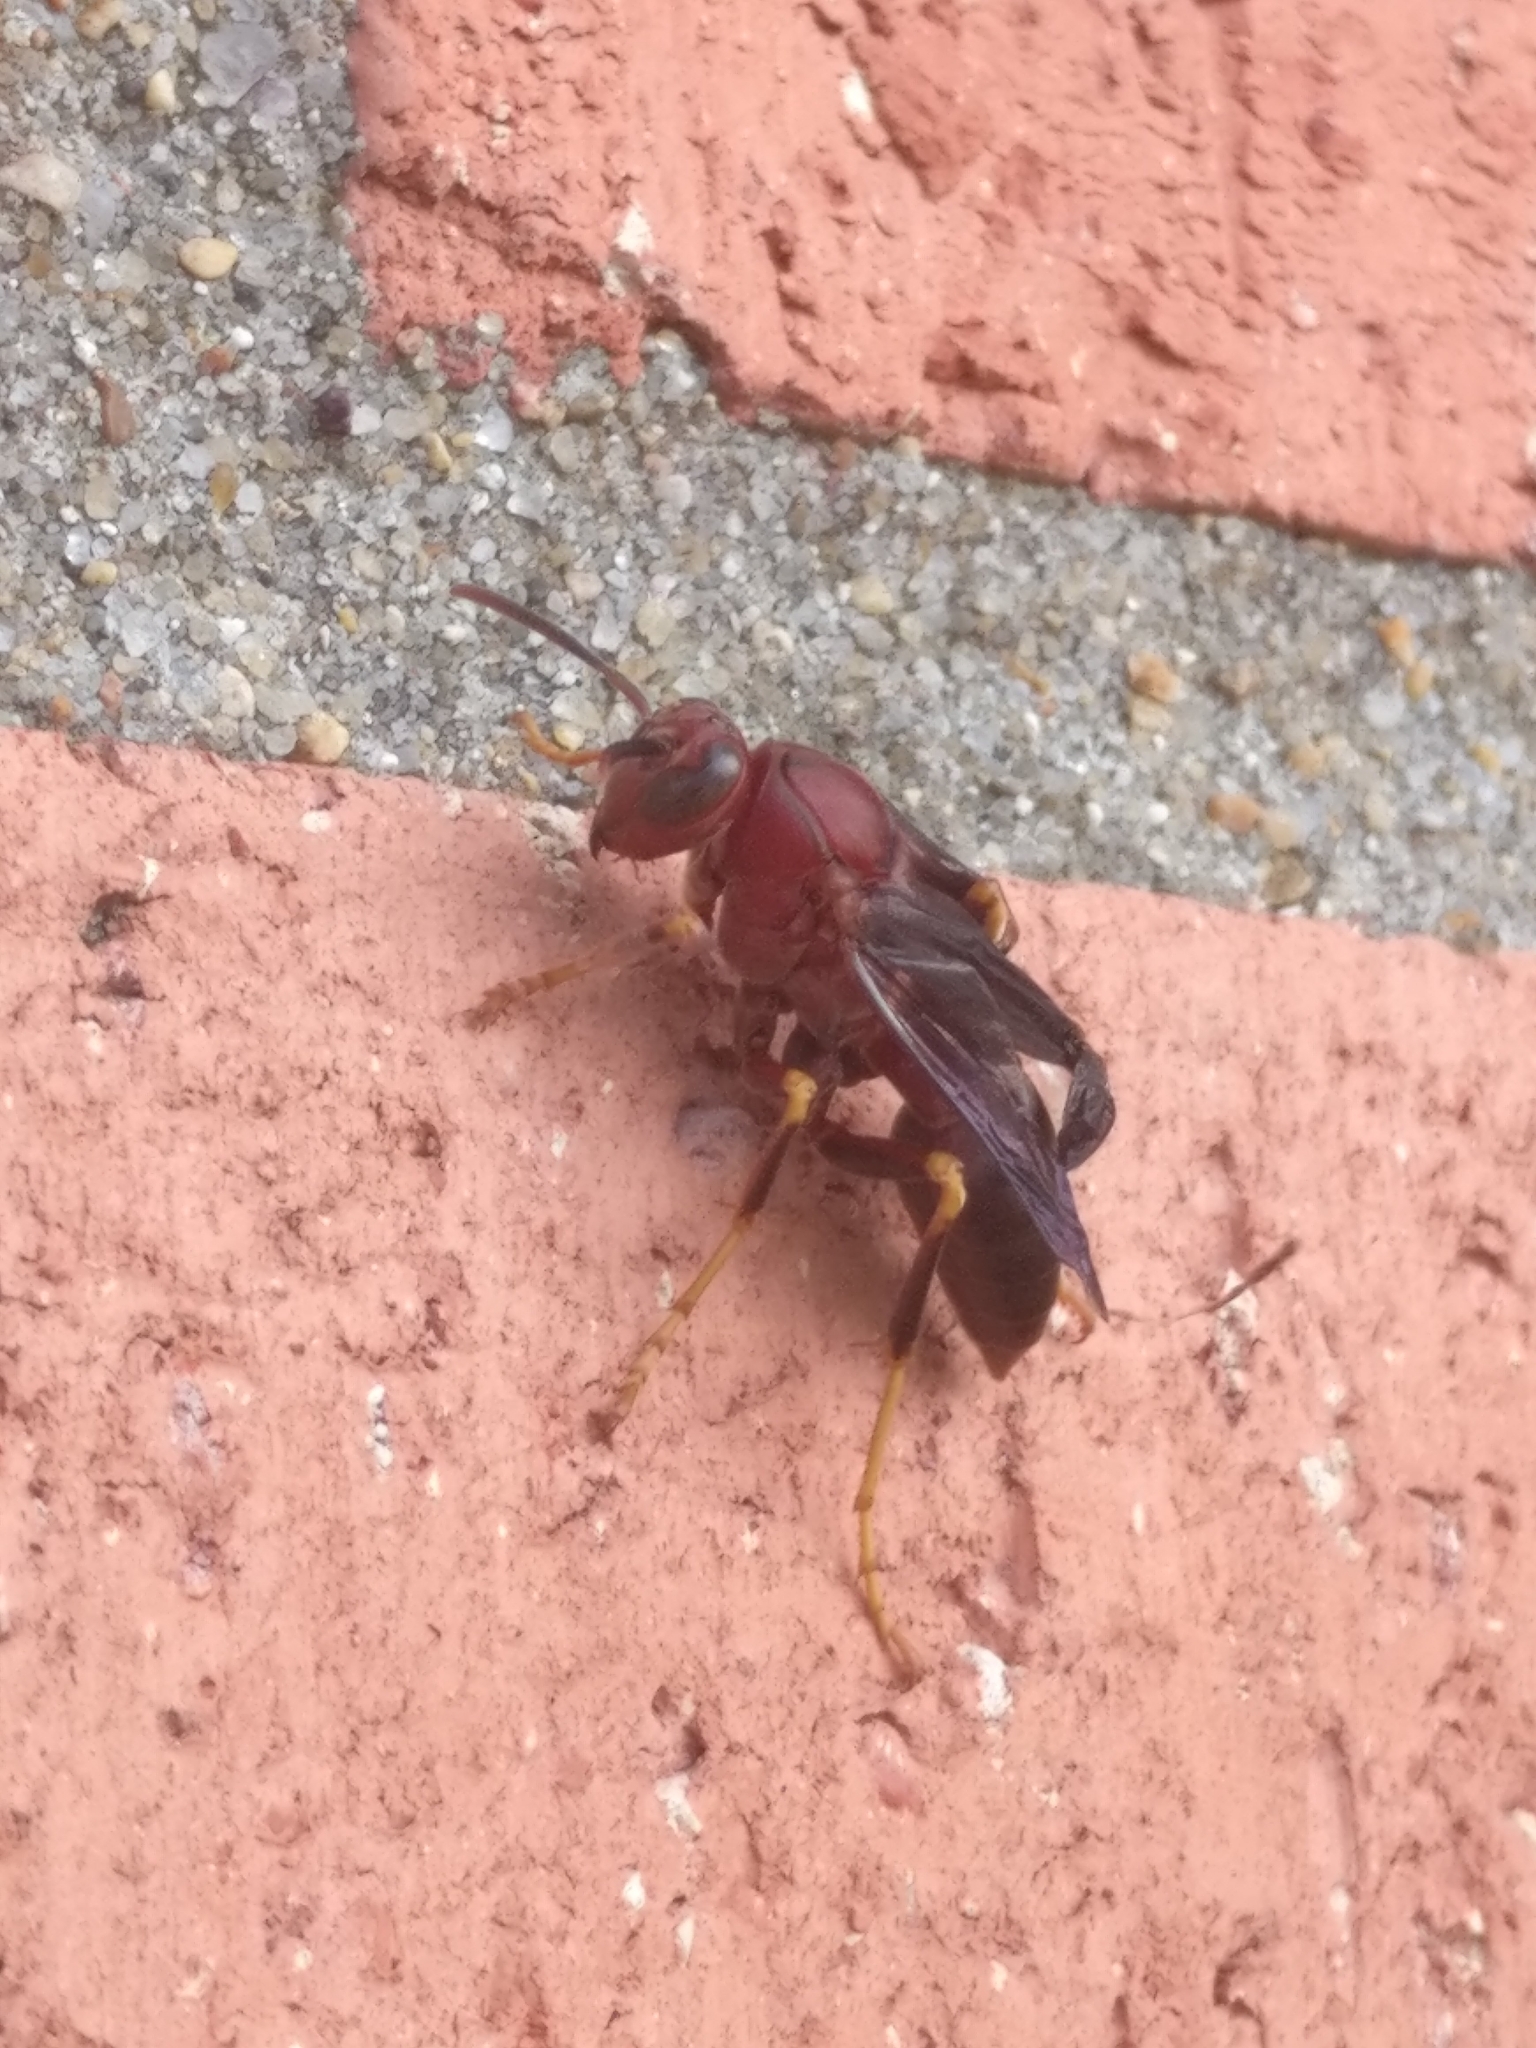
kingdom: Animalia
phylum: Arthropoda
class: Insecta
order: Hymenoptera
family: Eumenidae
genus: Polistes
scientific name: Polistes metricus
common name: Metric paper wasp
